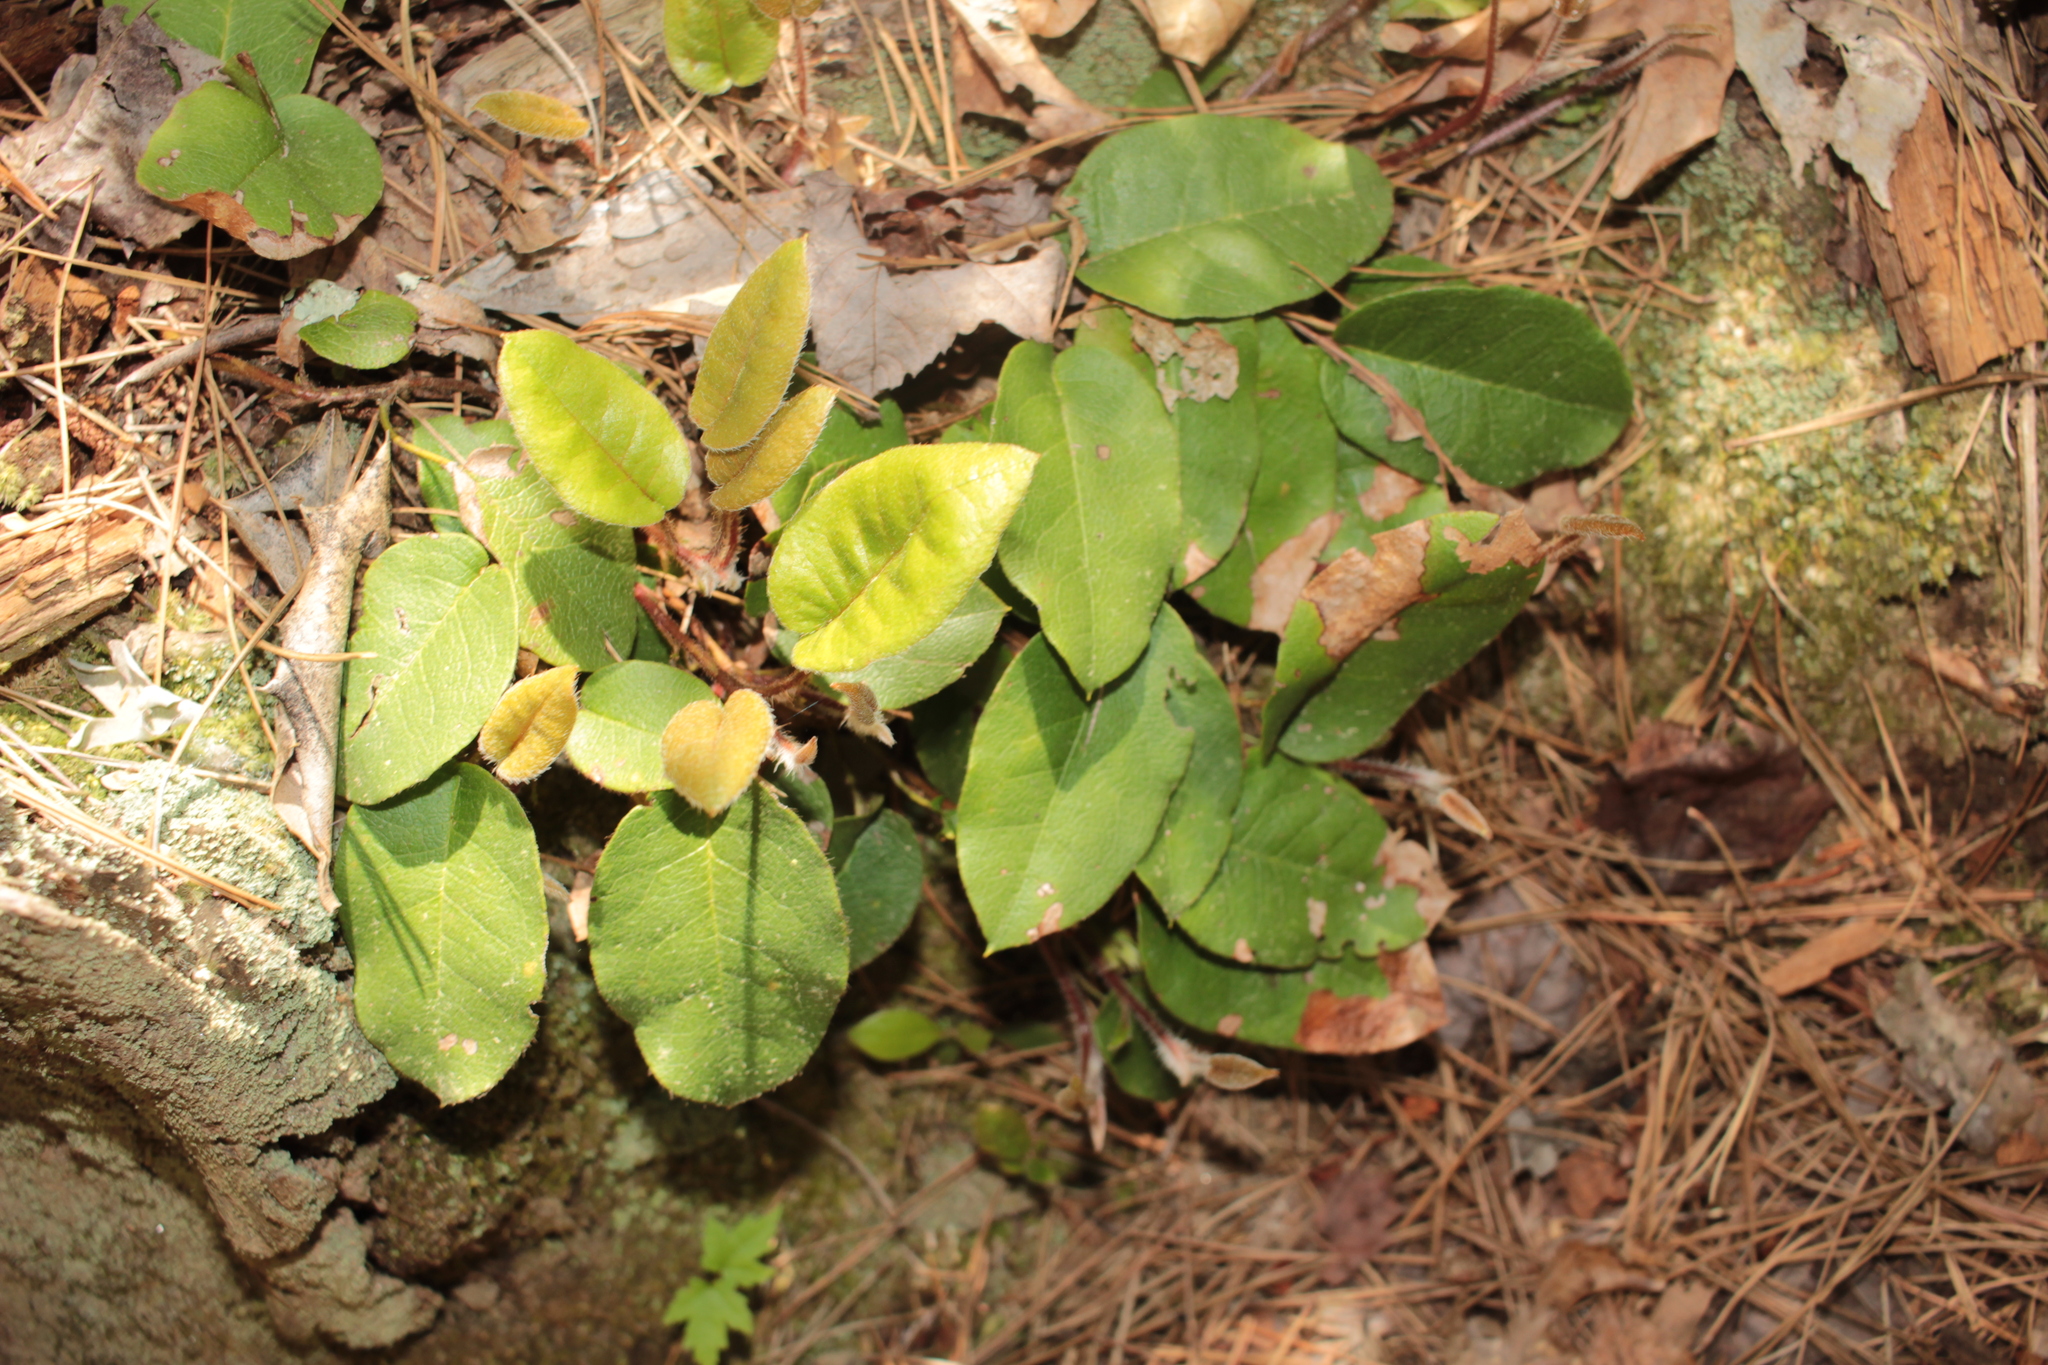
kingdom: Plantae
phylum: Tracheophyta
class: Magnoliopsida
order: Ericales
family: Ericaceae
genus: Epigaea
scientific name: Epigaea repens
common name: Gravelroot
